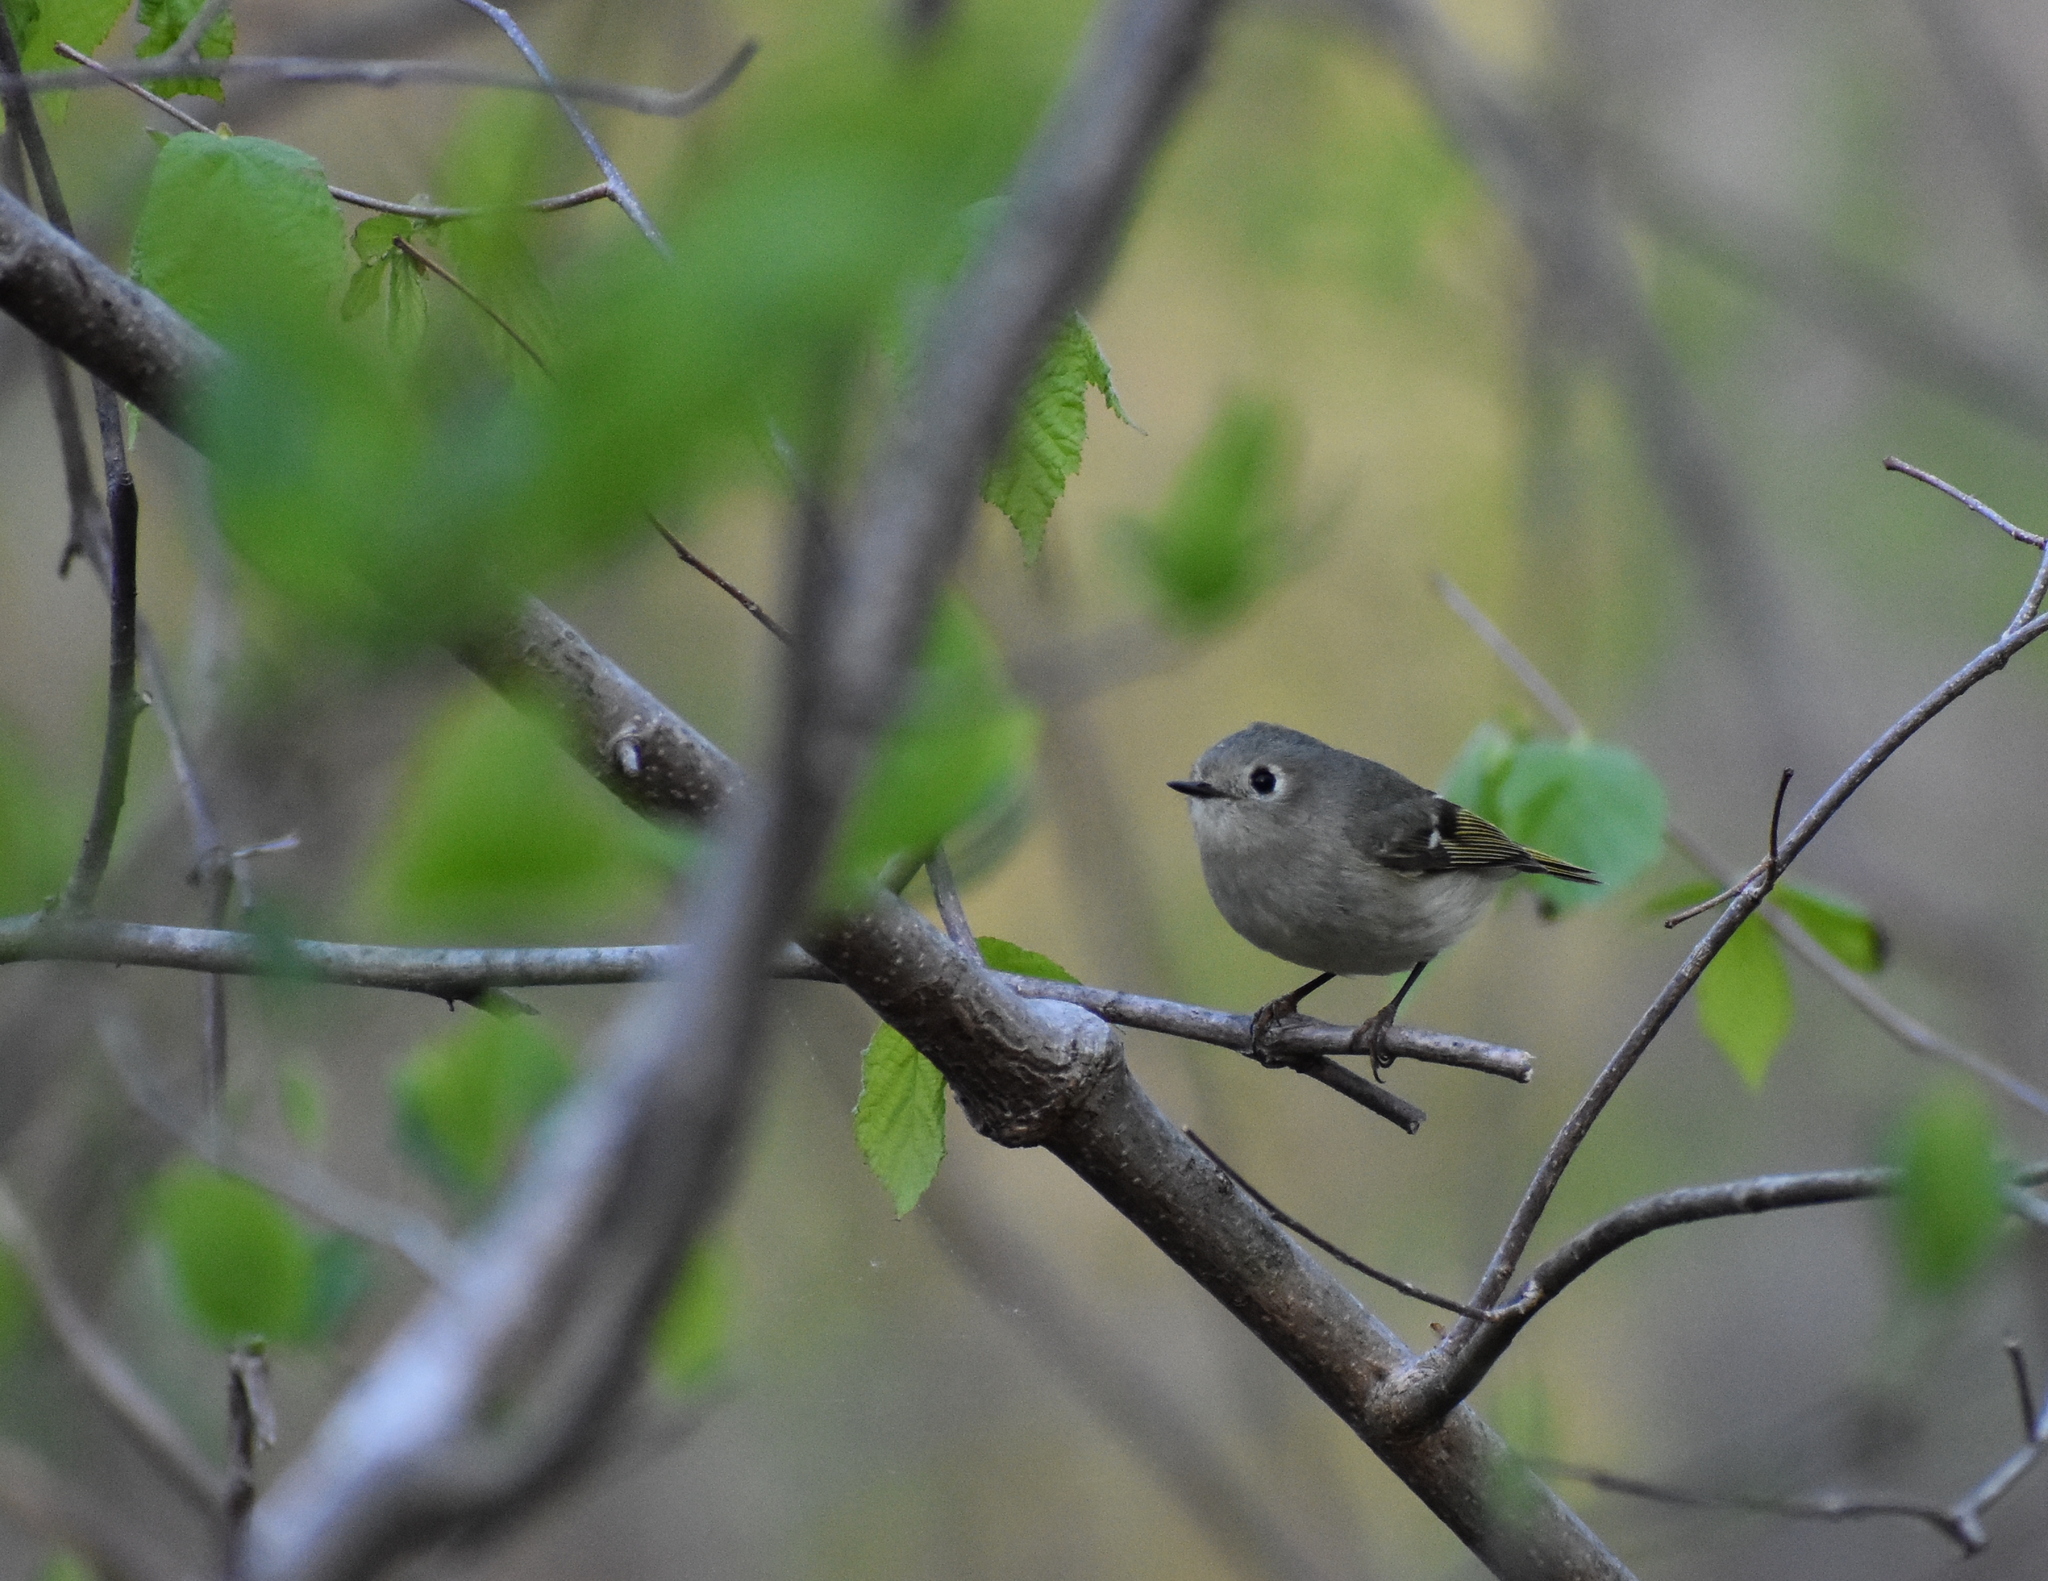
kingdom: Animalia
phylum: Chordata
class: Aves
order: Passeriformes
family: Regulidae
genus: Regulus
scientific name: Regulus calendula
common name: Ruby-crowned kinglet
